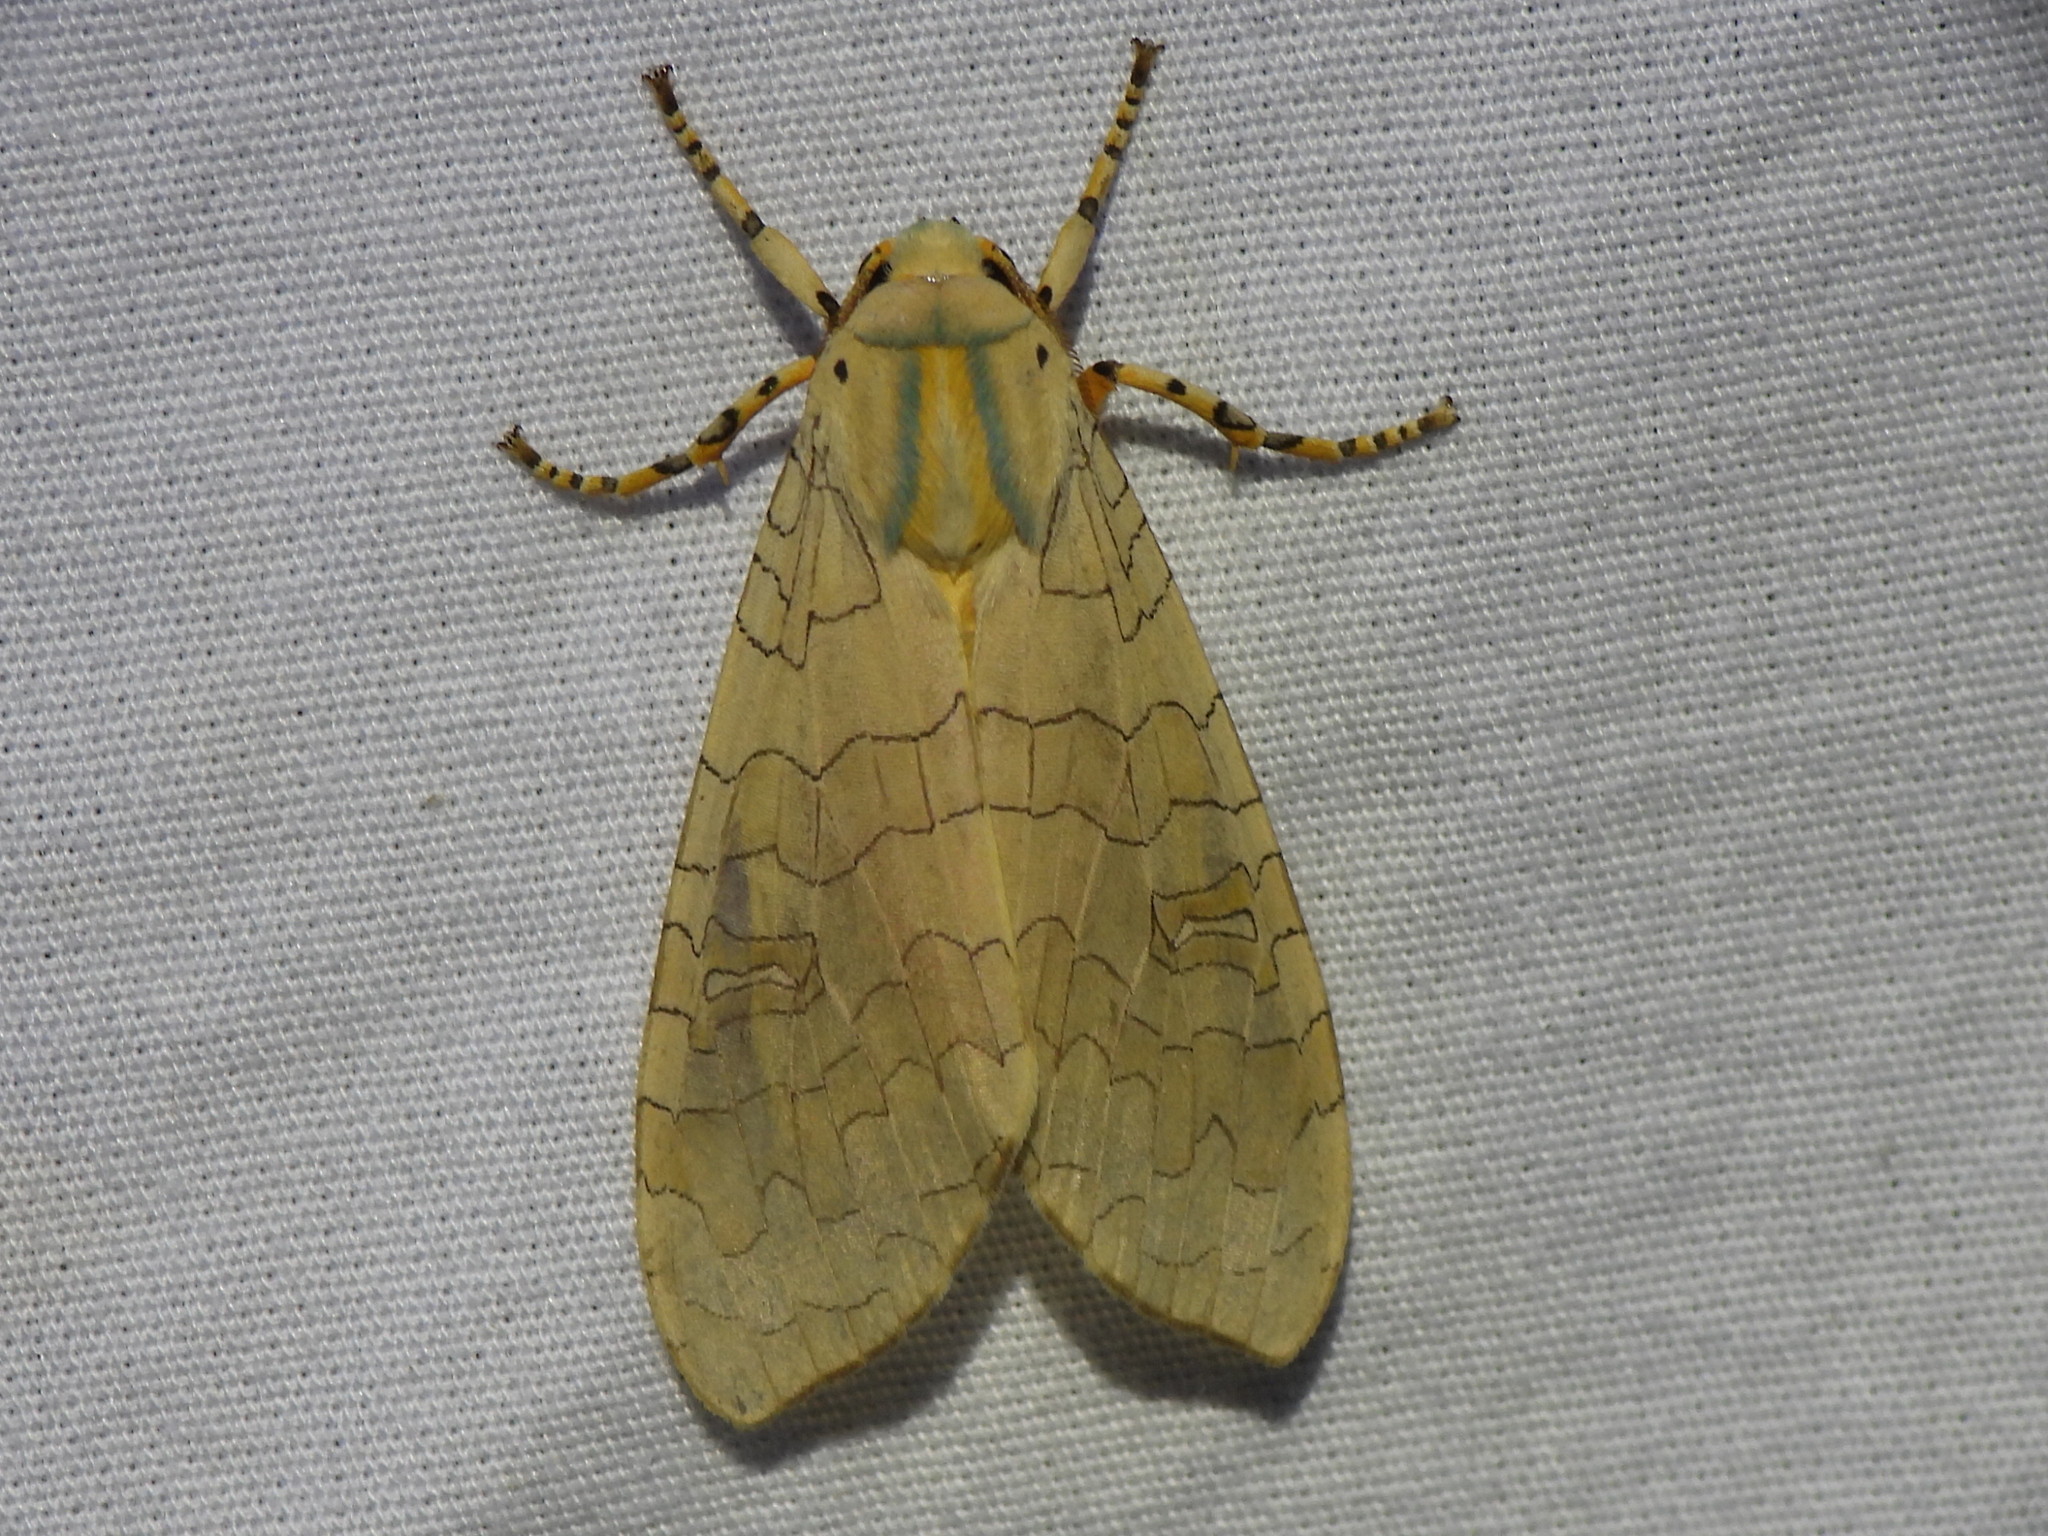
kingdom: Animalia
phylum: Arthropoda
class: Insecta
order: Lepidoptera
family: Erebidae
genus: Halysidota
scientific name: Halysidota
